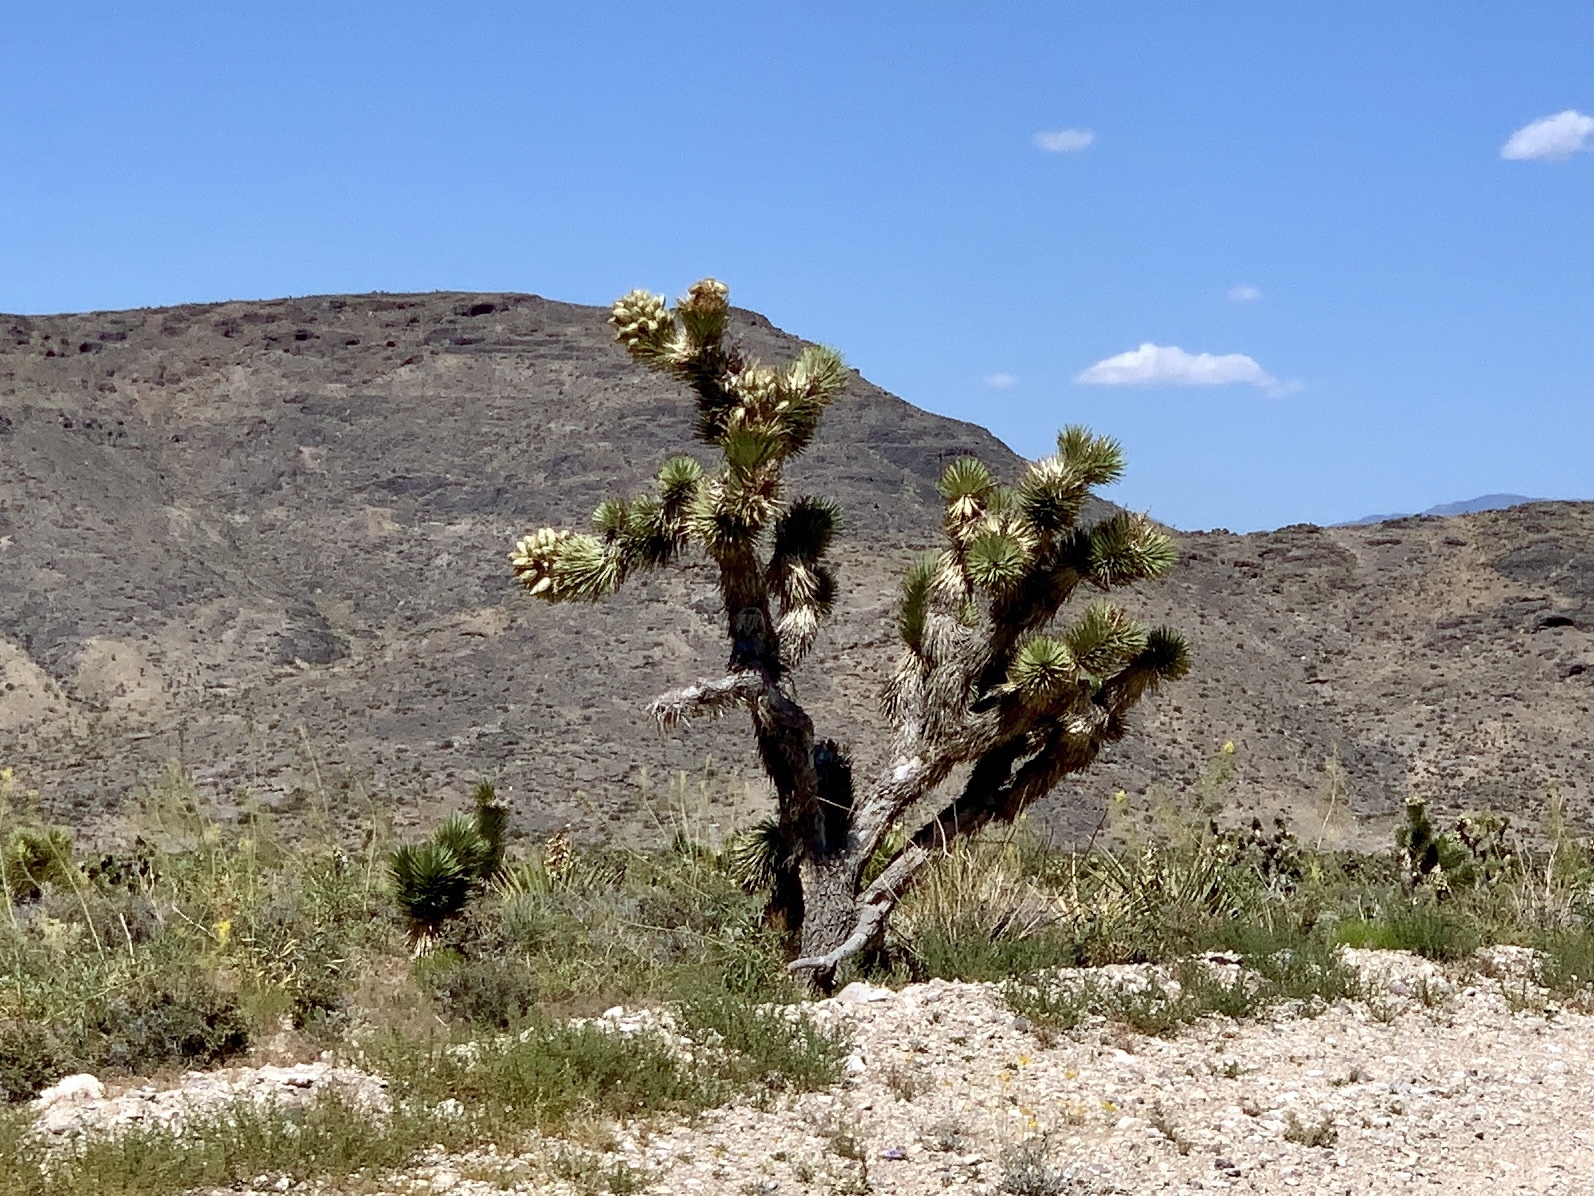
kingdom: Plantae
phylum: Tracheophyta
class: Liliopsida
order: Asparagales
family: Asparagaceae
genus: Yucca
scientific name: Yucca brevifolia
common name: Joshua tree
